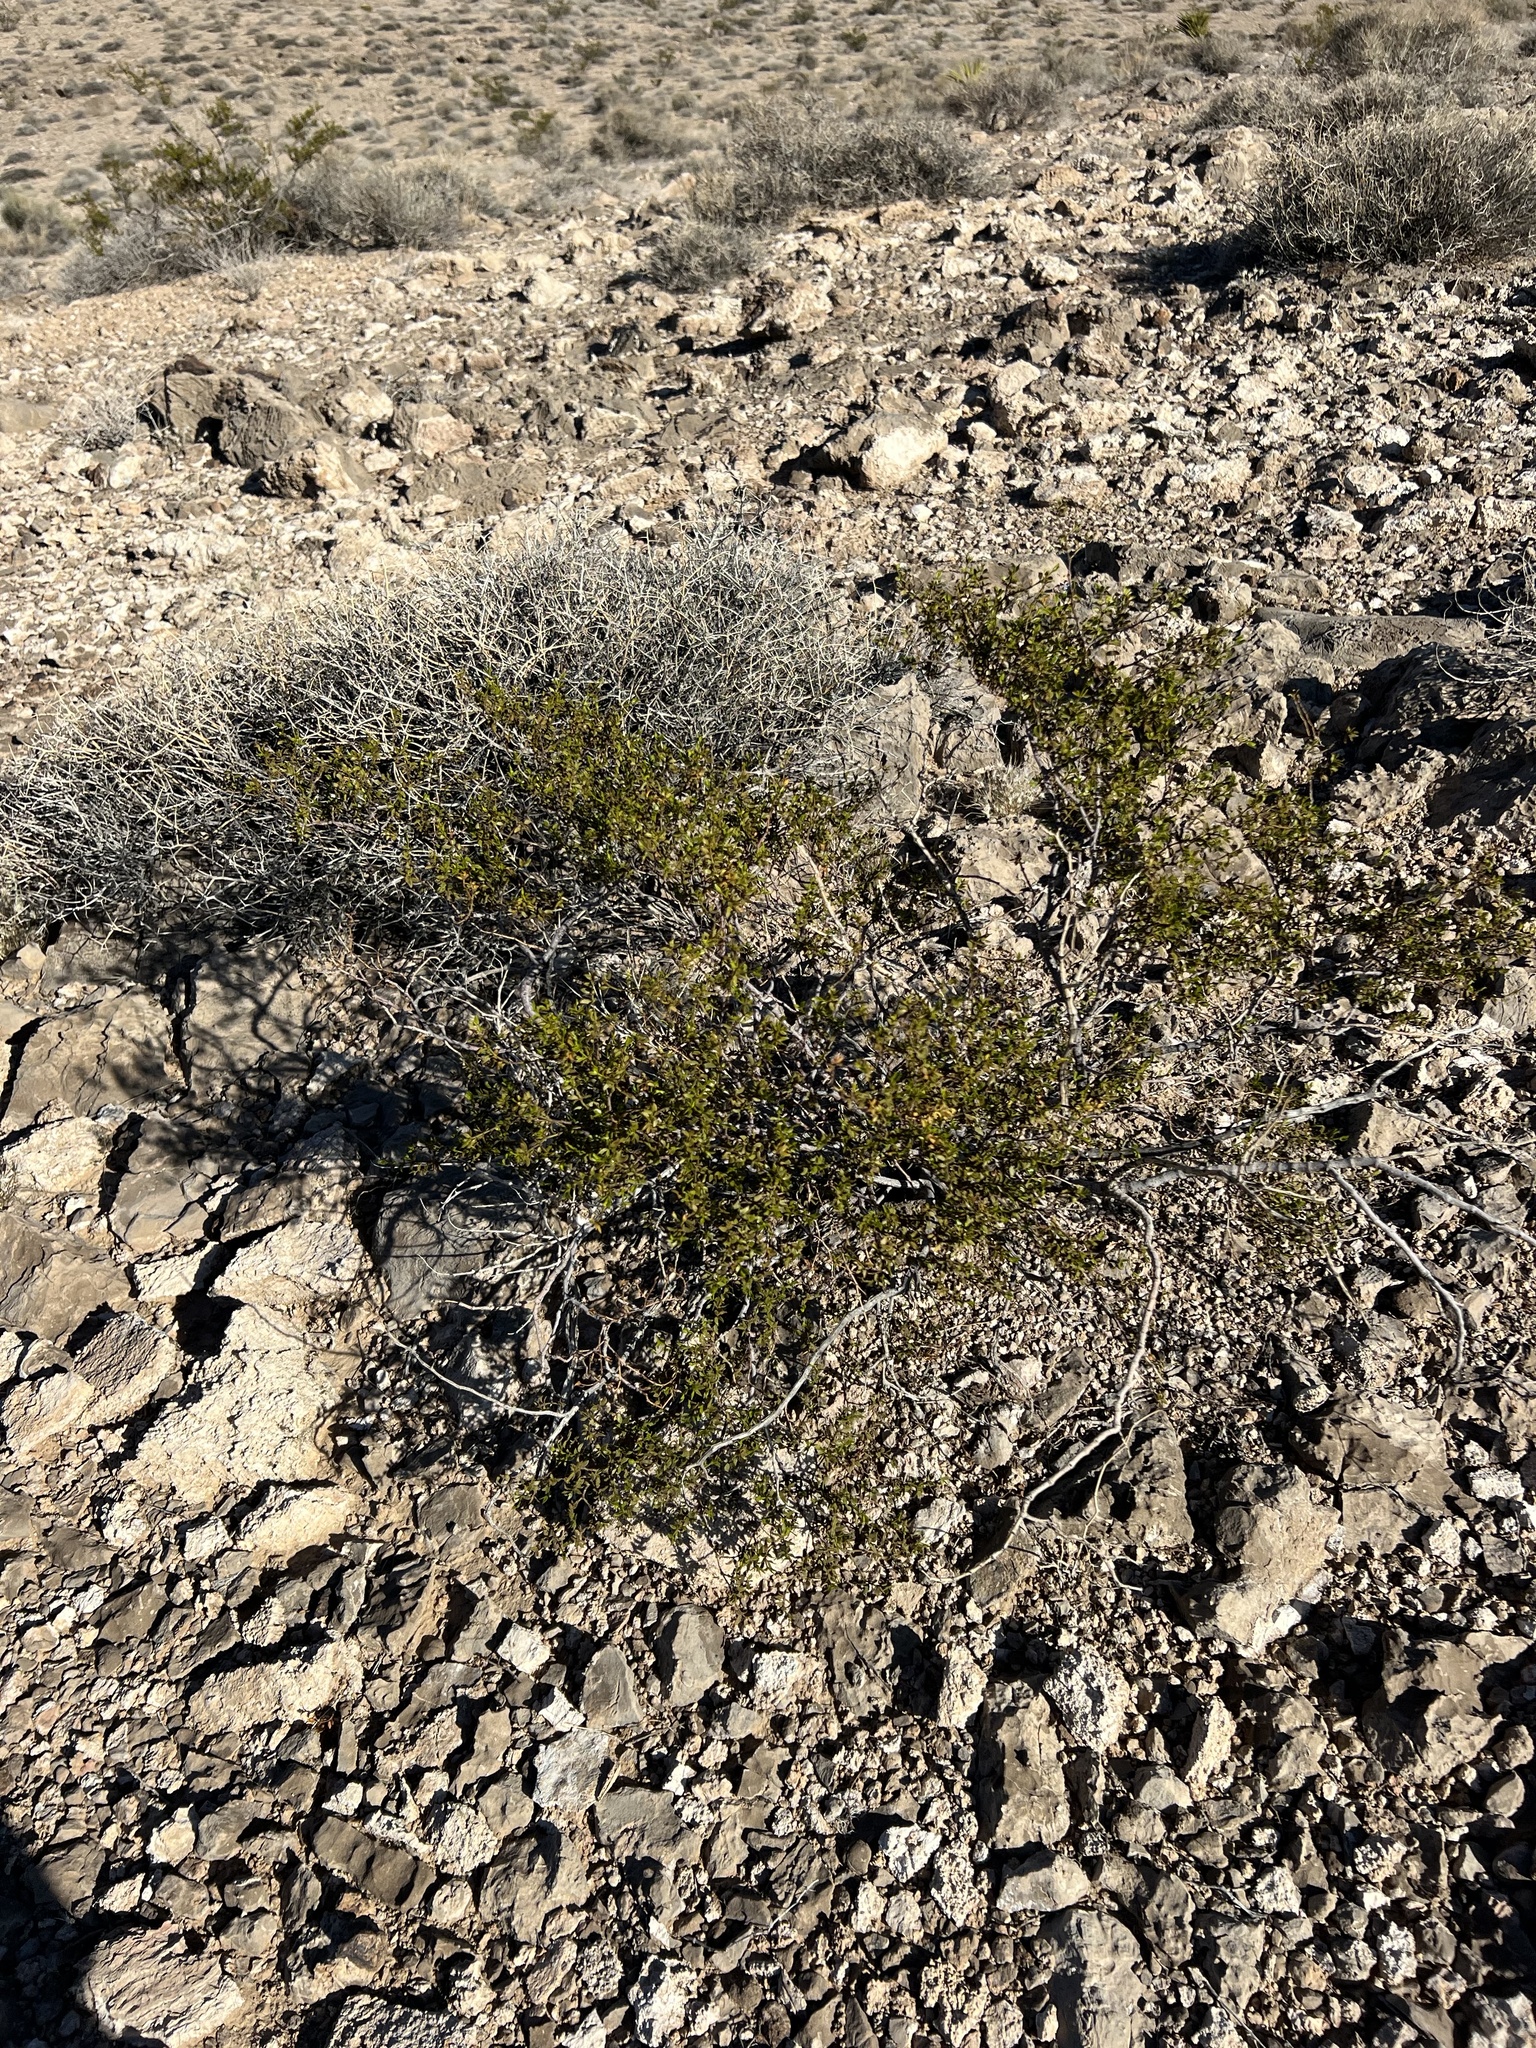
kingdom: Plantae
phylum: Tracheophyta
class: Magnoliopsida
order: Zygophyllales
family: Zygophyllaceae
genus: Larrea
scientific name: Larrea tridentata
